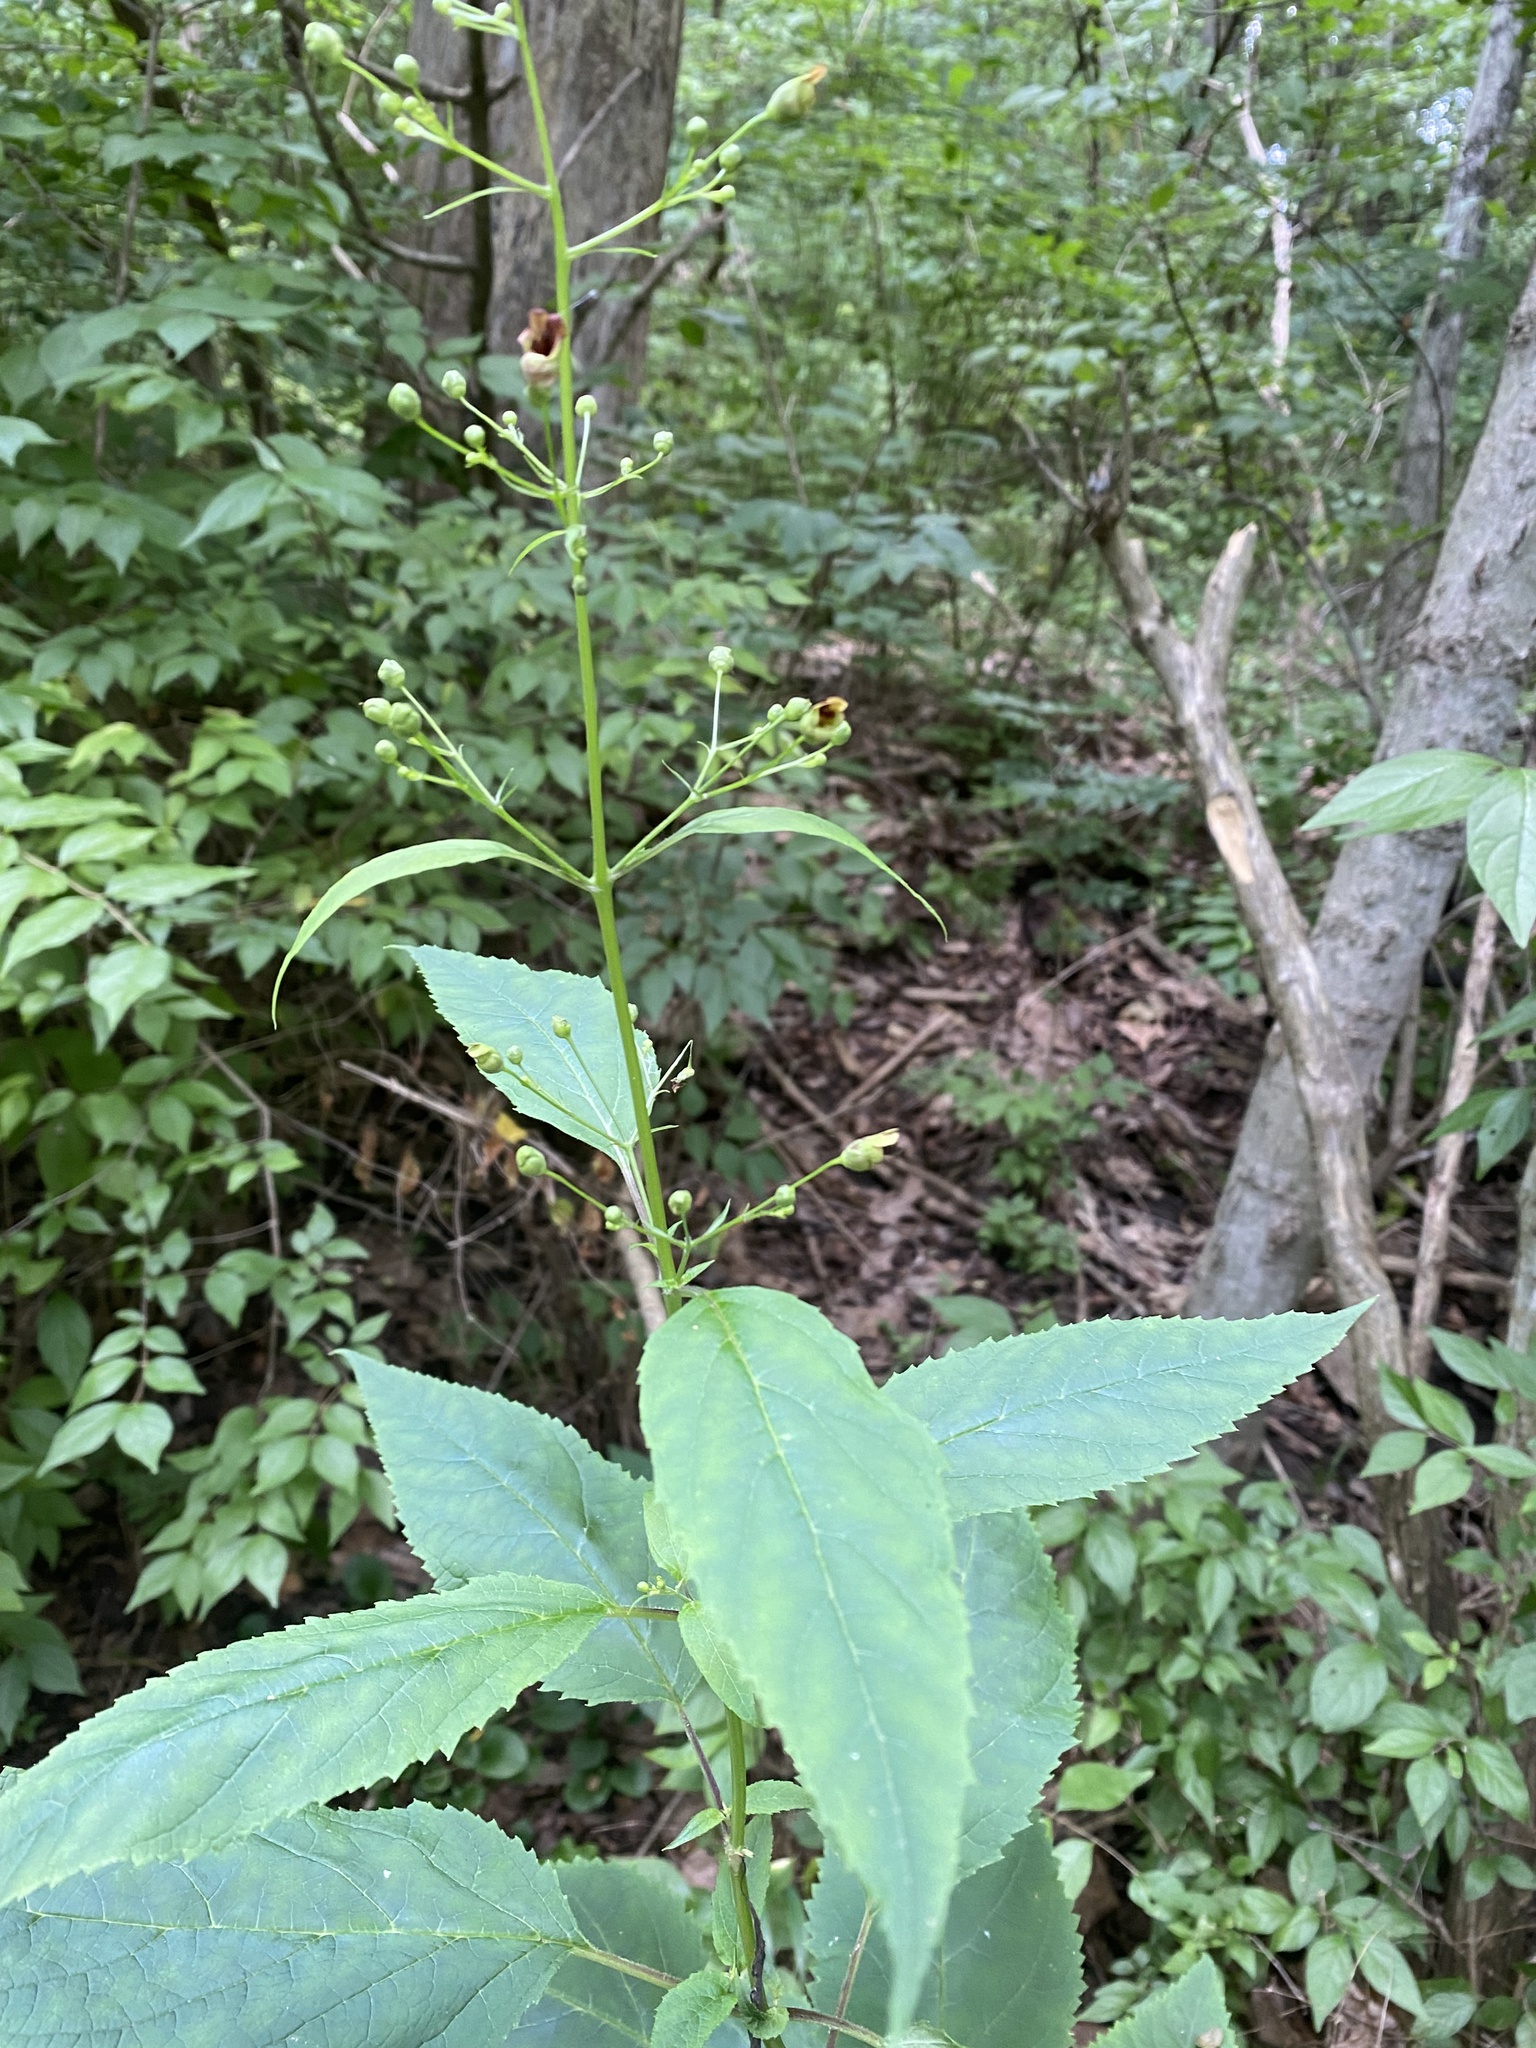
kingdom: Plantae
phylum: Tracheophyta
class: Magnoliopsida
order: Lamiales
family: Scrophulariaceae
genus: Scrophularia
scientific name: Scrophularia marilandica
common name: Eastern figwort
